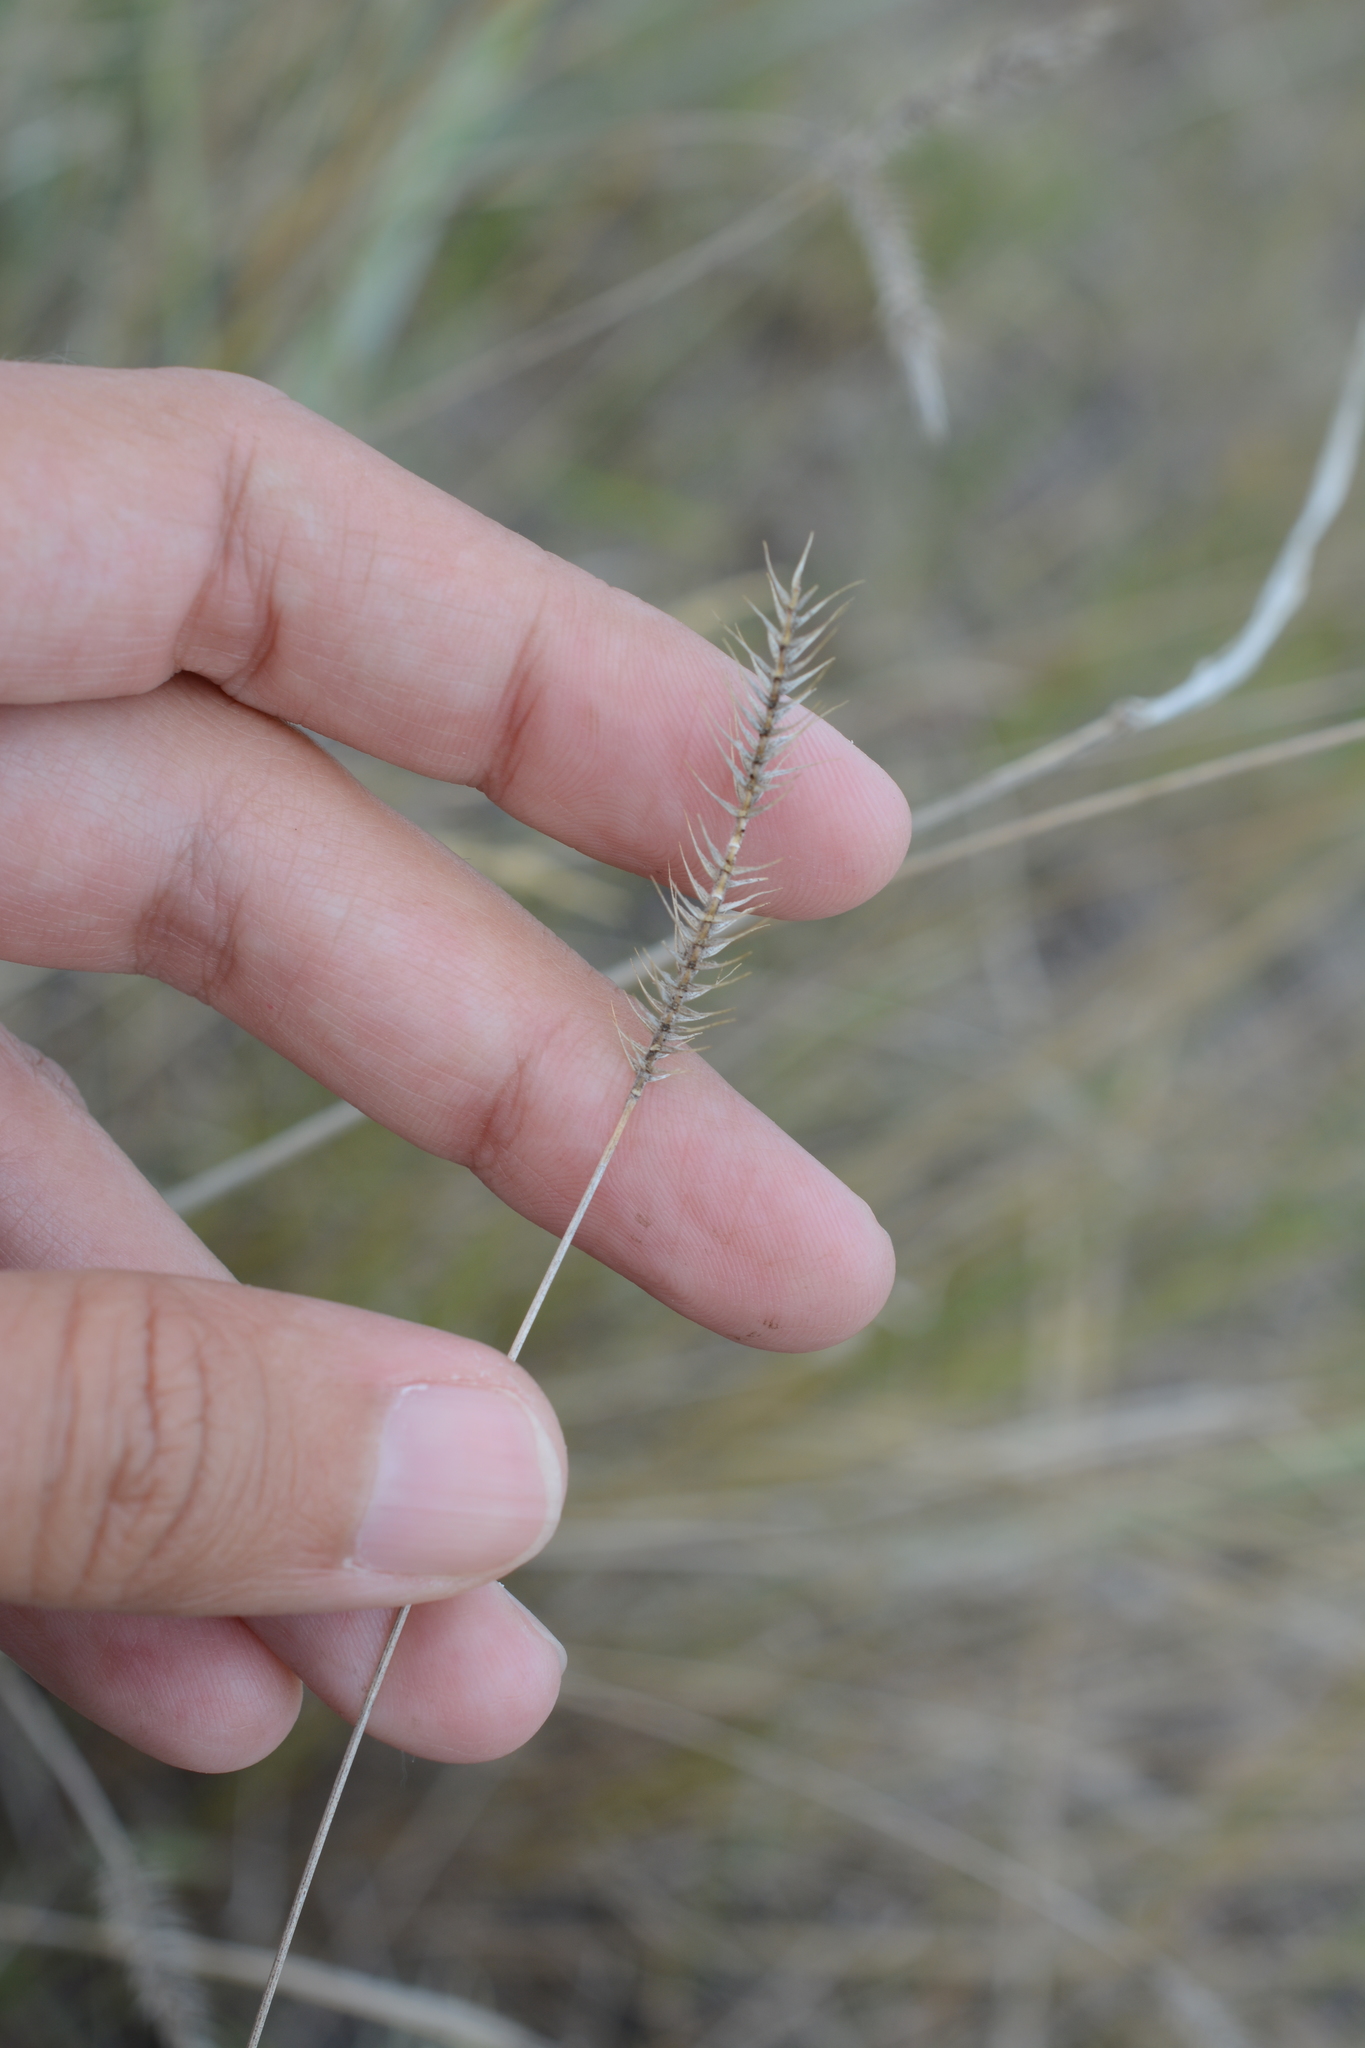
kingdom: Plantae
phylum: Tracheophyta
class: Liliopsida
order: Poales
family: Poaceae
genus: Agropyron
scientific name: Agropyron cristatum
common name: Crested wheatgrass
